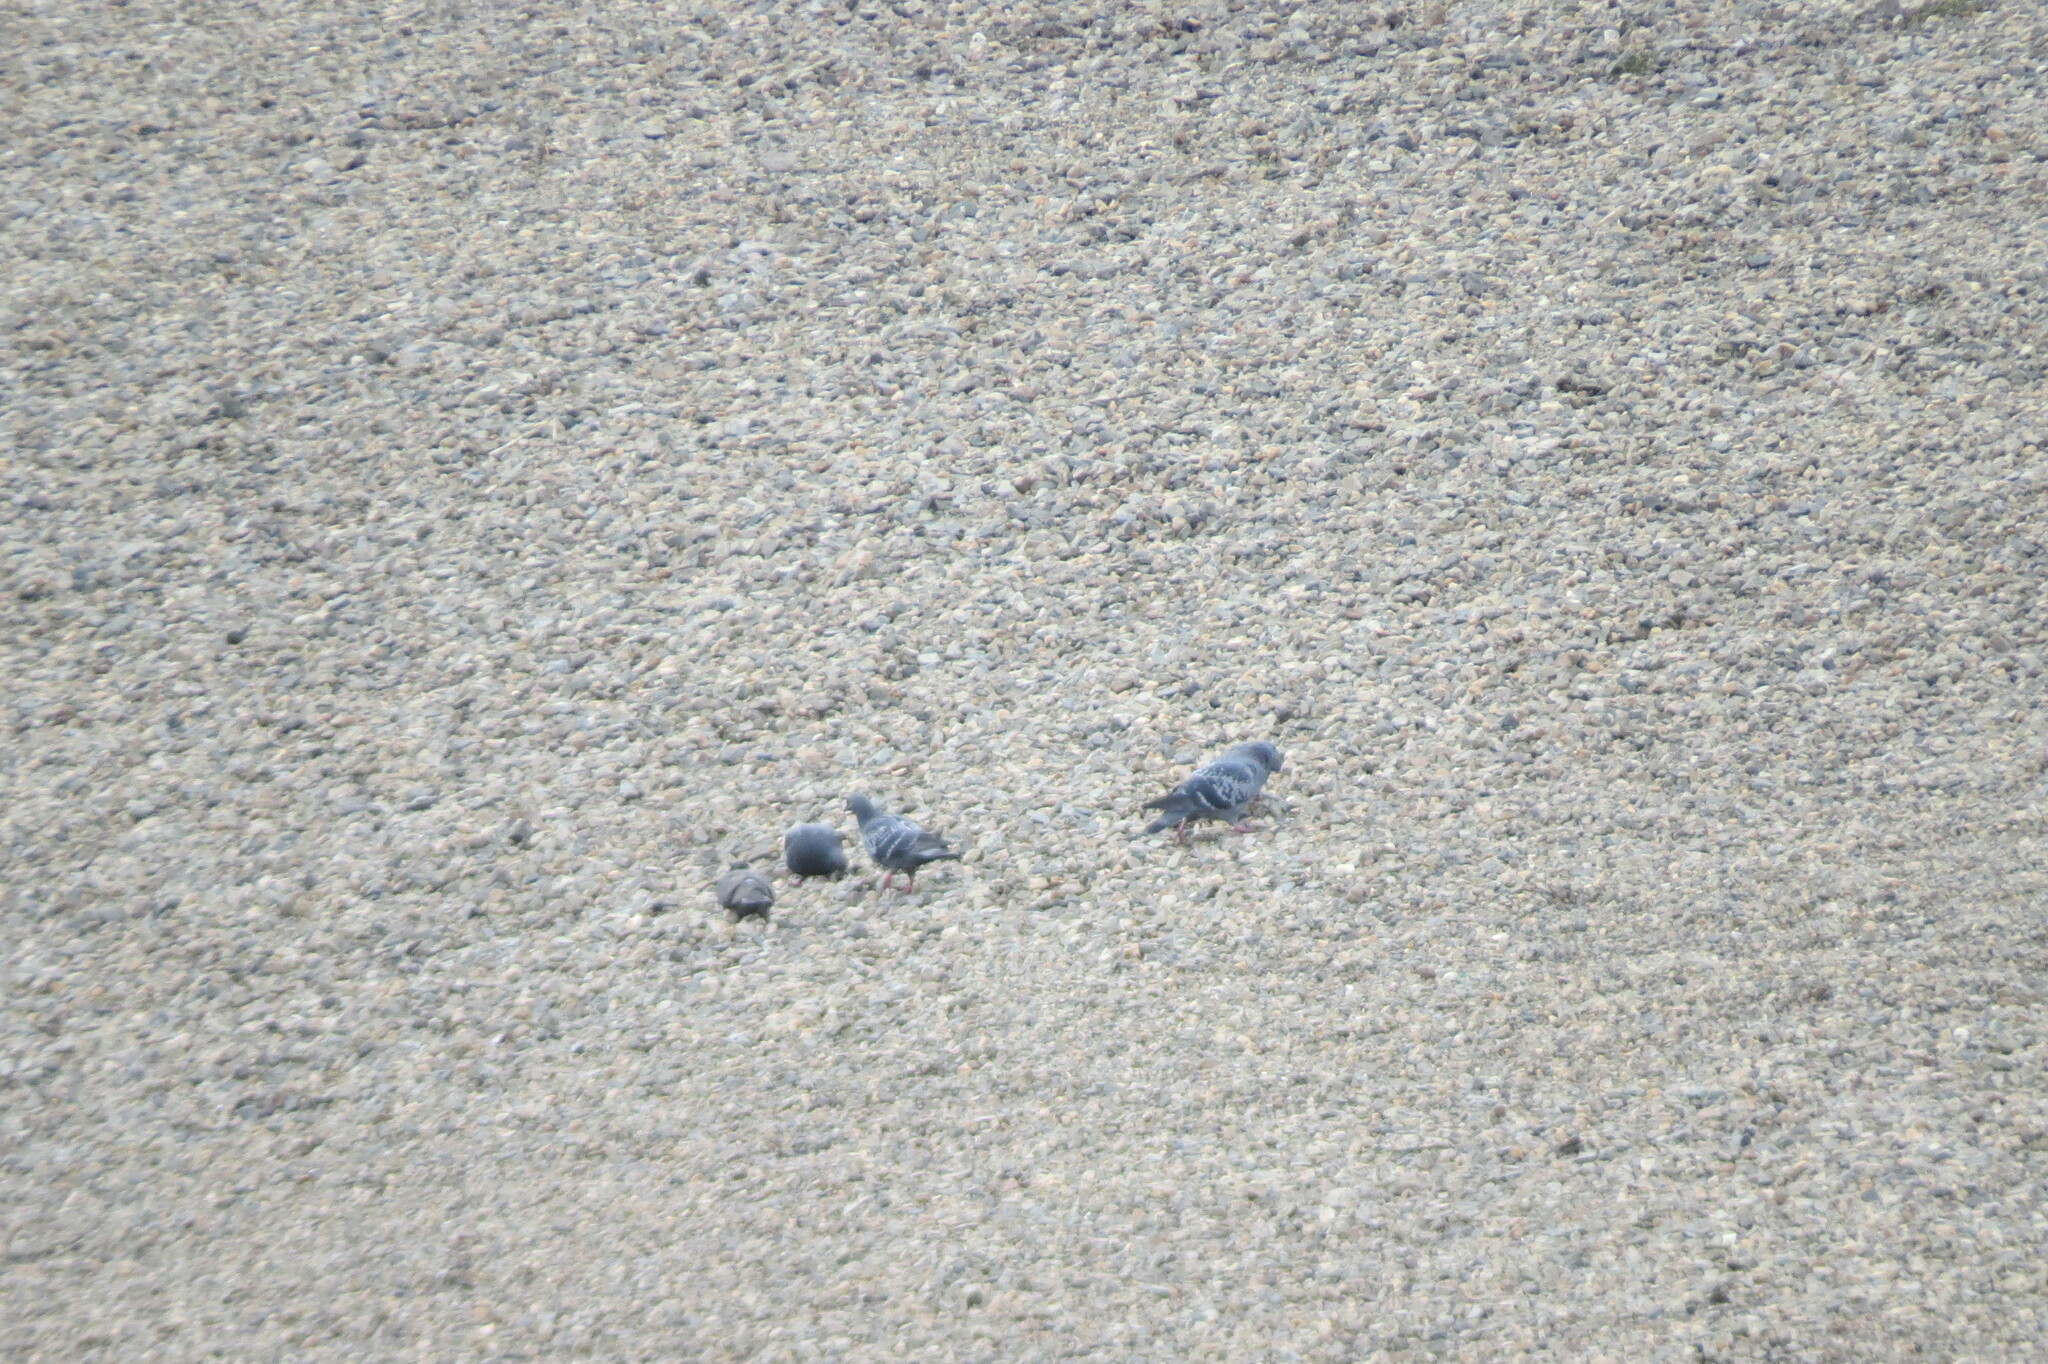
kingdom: Animalia
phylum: Chordata
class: Aves
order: Columbiformes
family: Columbidae
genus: Columba
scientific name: Columba livia
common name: Rock pigeon
